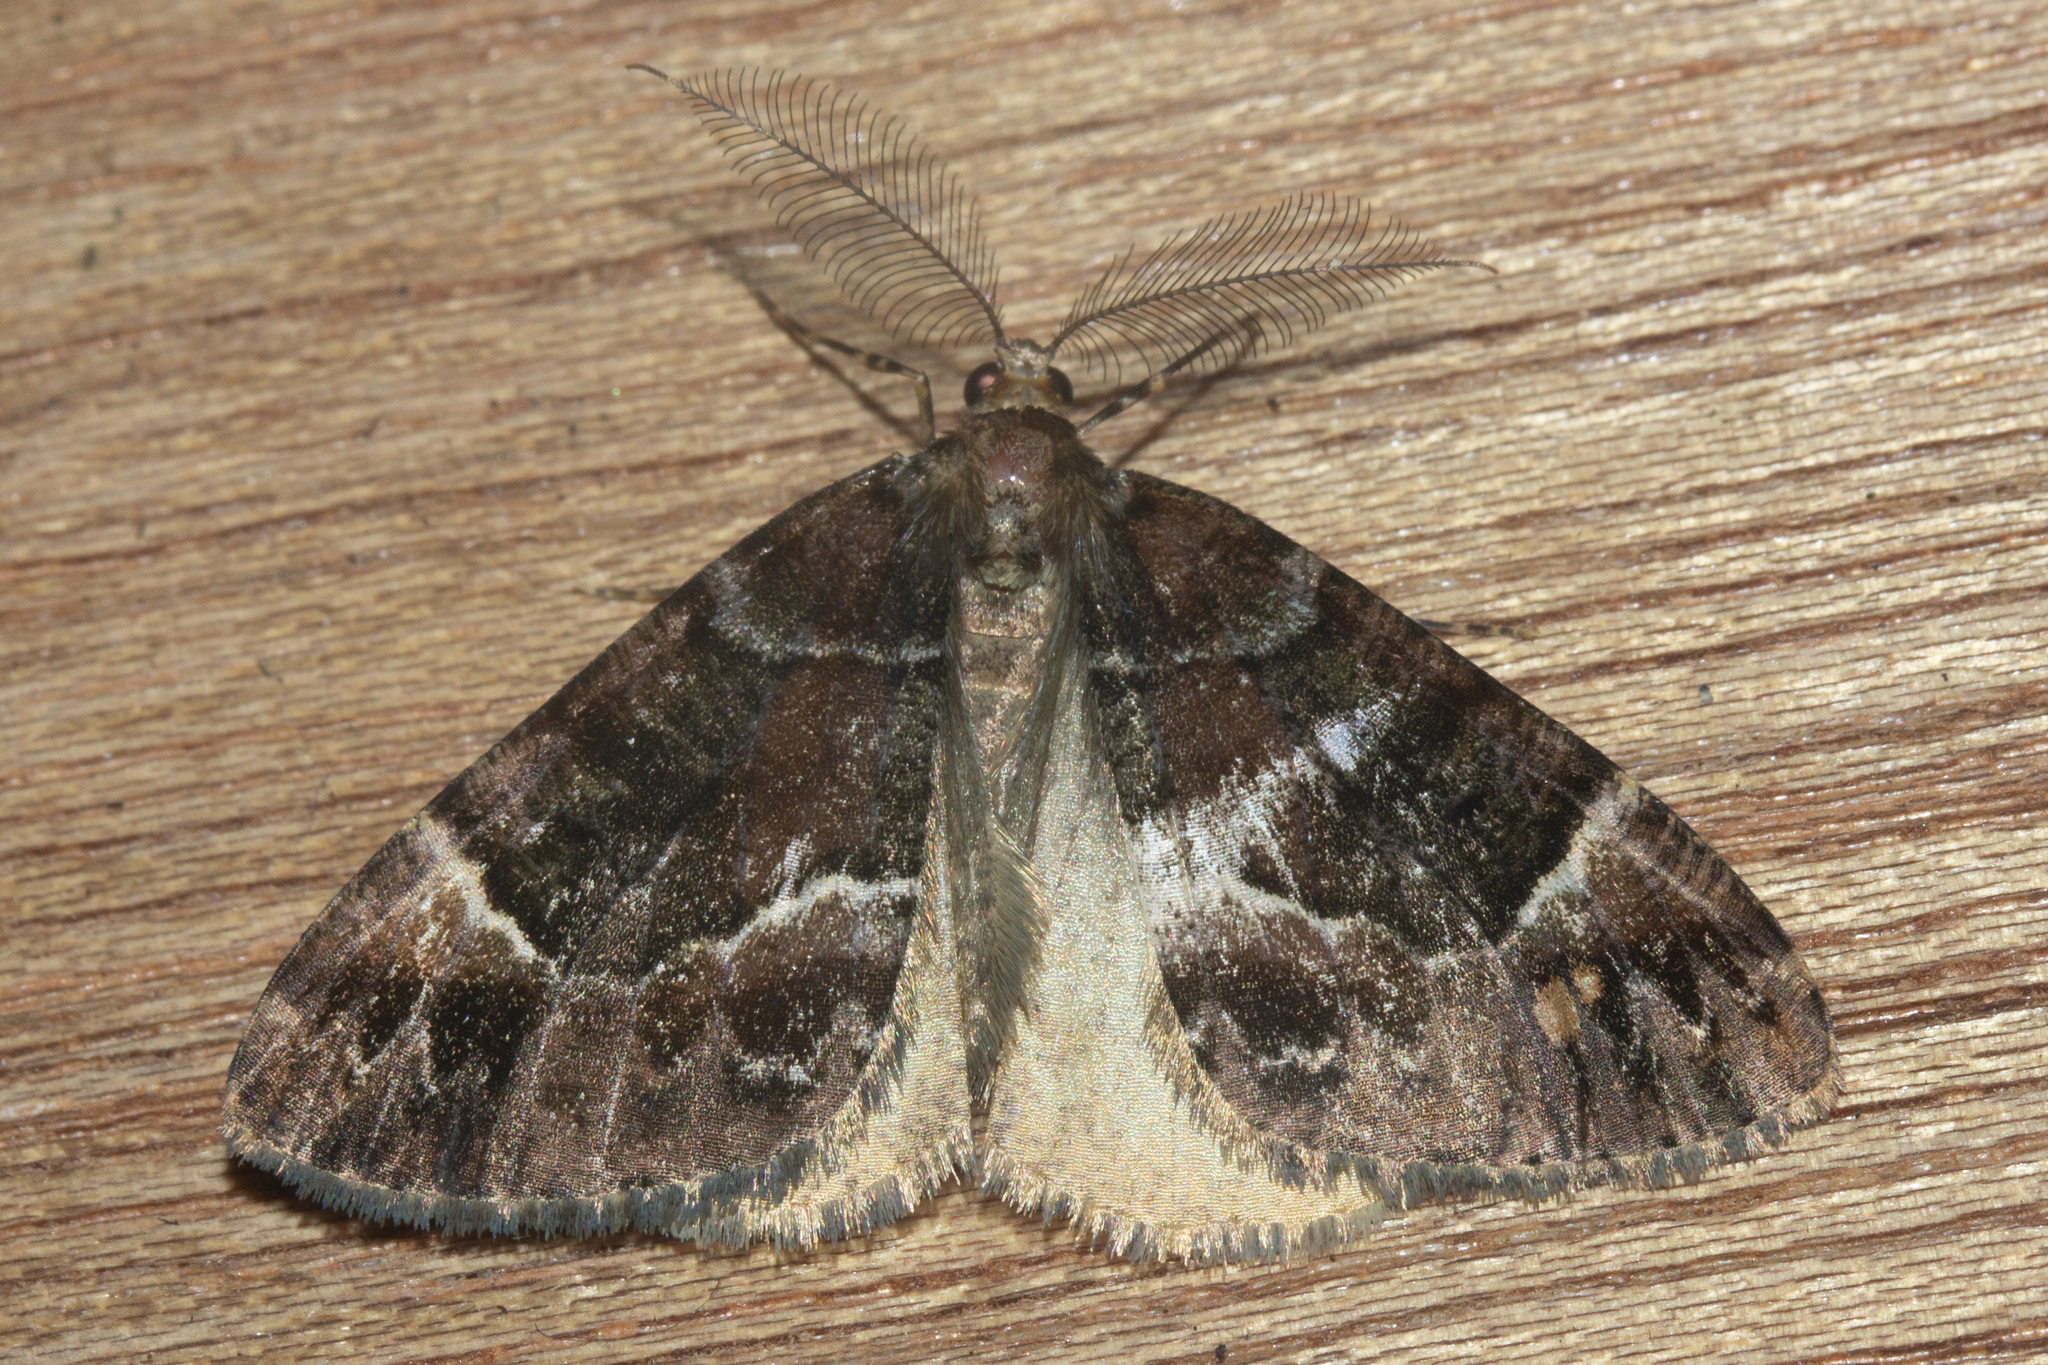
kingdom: Animalia
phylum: Arthropoda
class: Insecta
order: Lepidoptera
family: Geometridae
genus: Pseudocoremia
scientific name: Pseudocoremia productata
